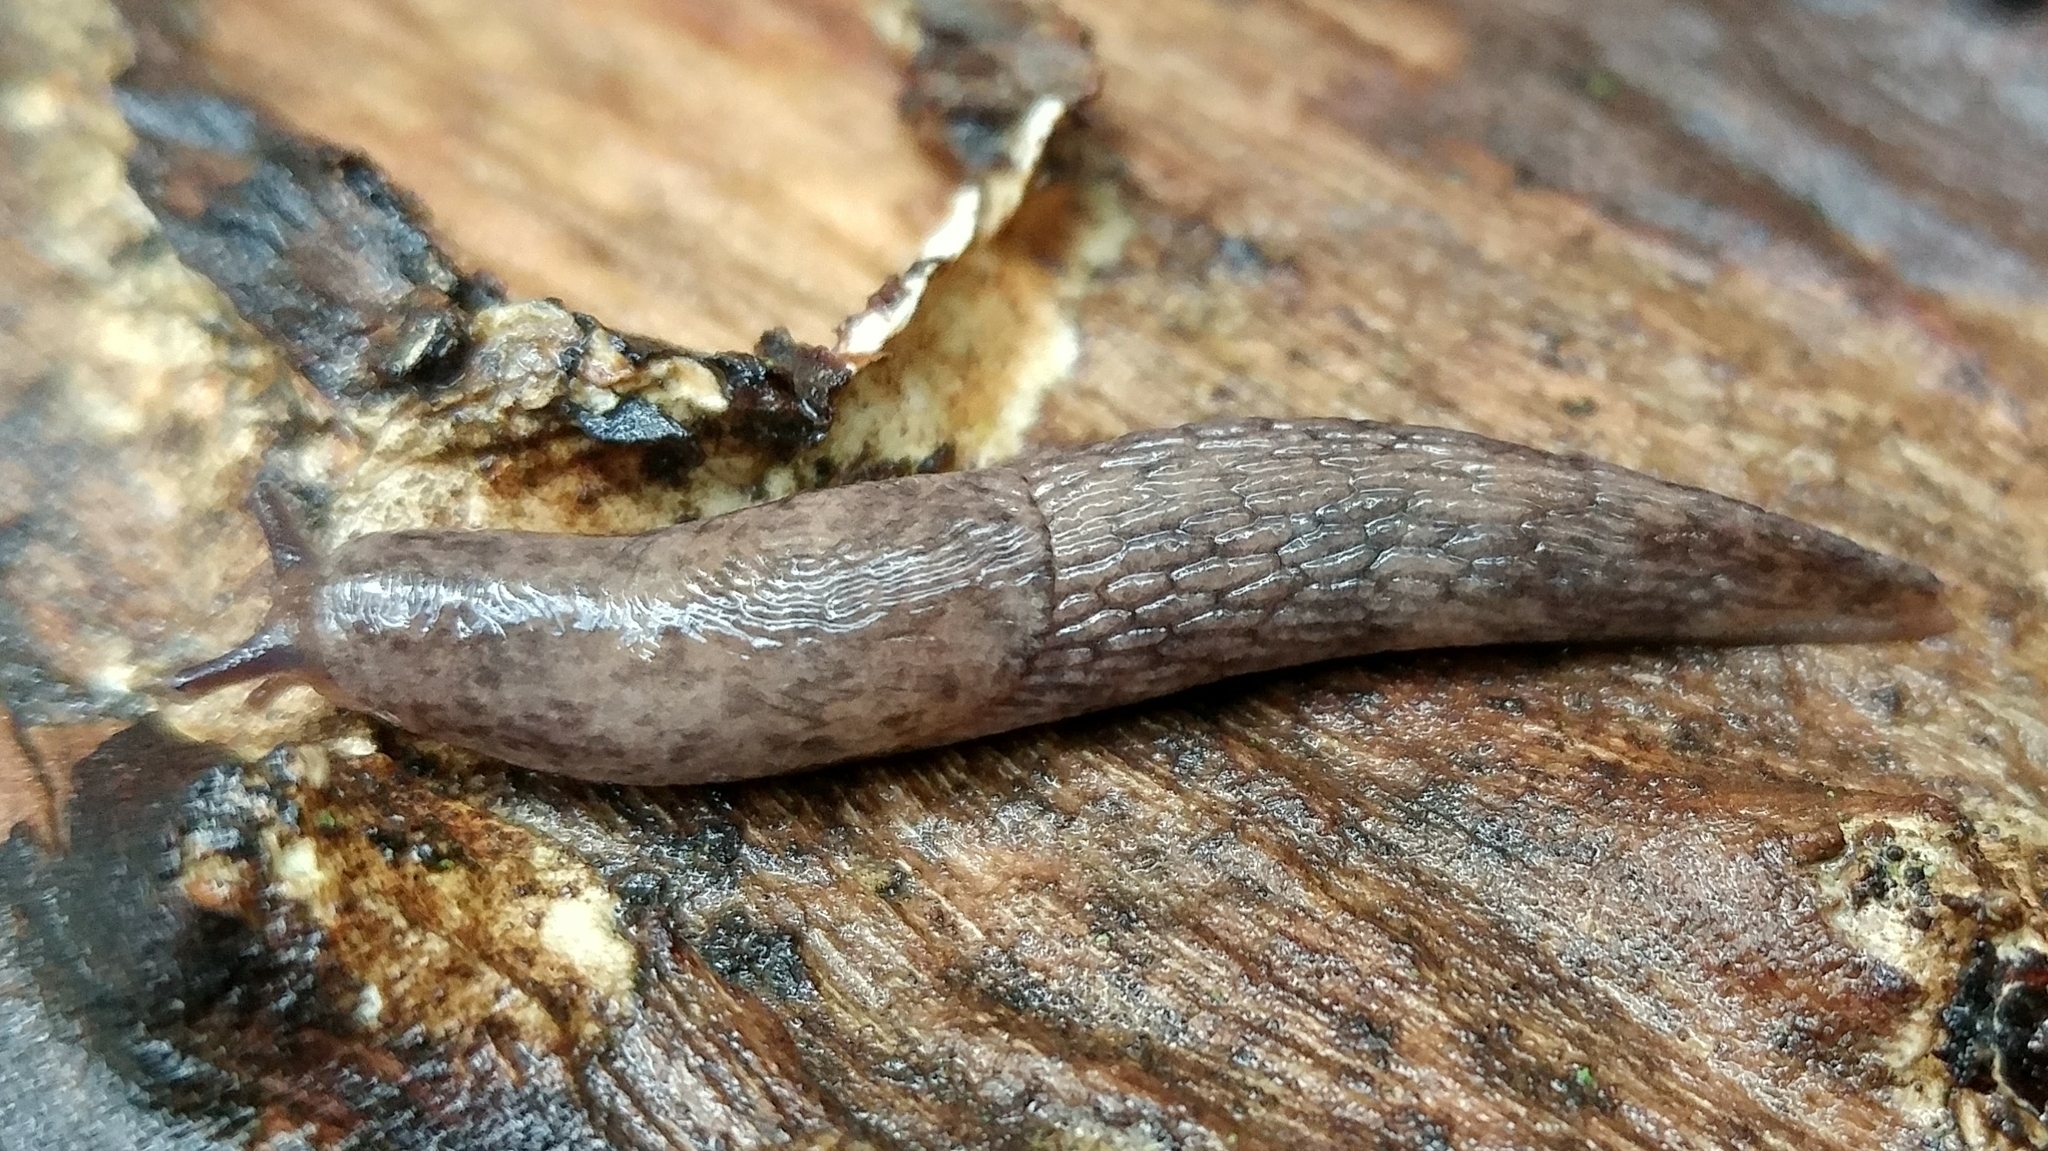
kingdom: Animalia
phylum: Mollusca
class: Gastropoda
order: Stylommatophora
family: Agriolimacidae
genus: Deroceras
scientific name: Deroceras reticulatum
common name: Gray field slug
